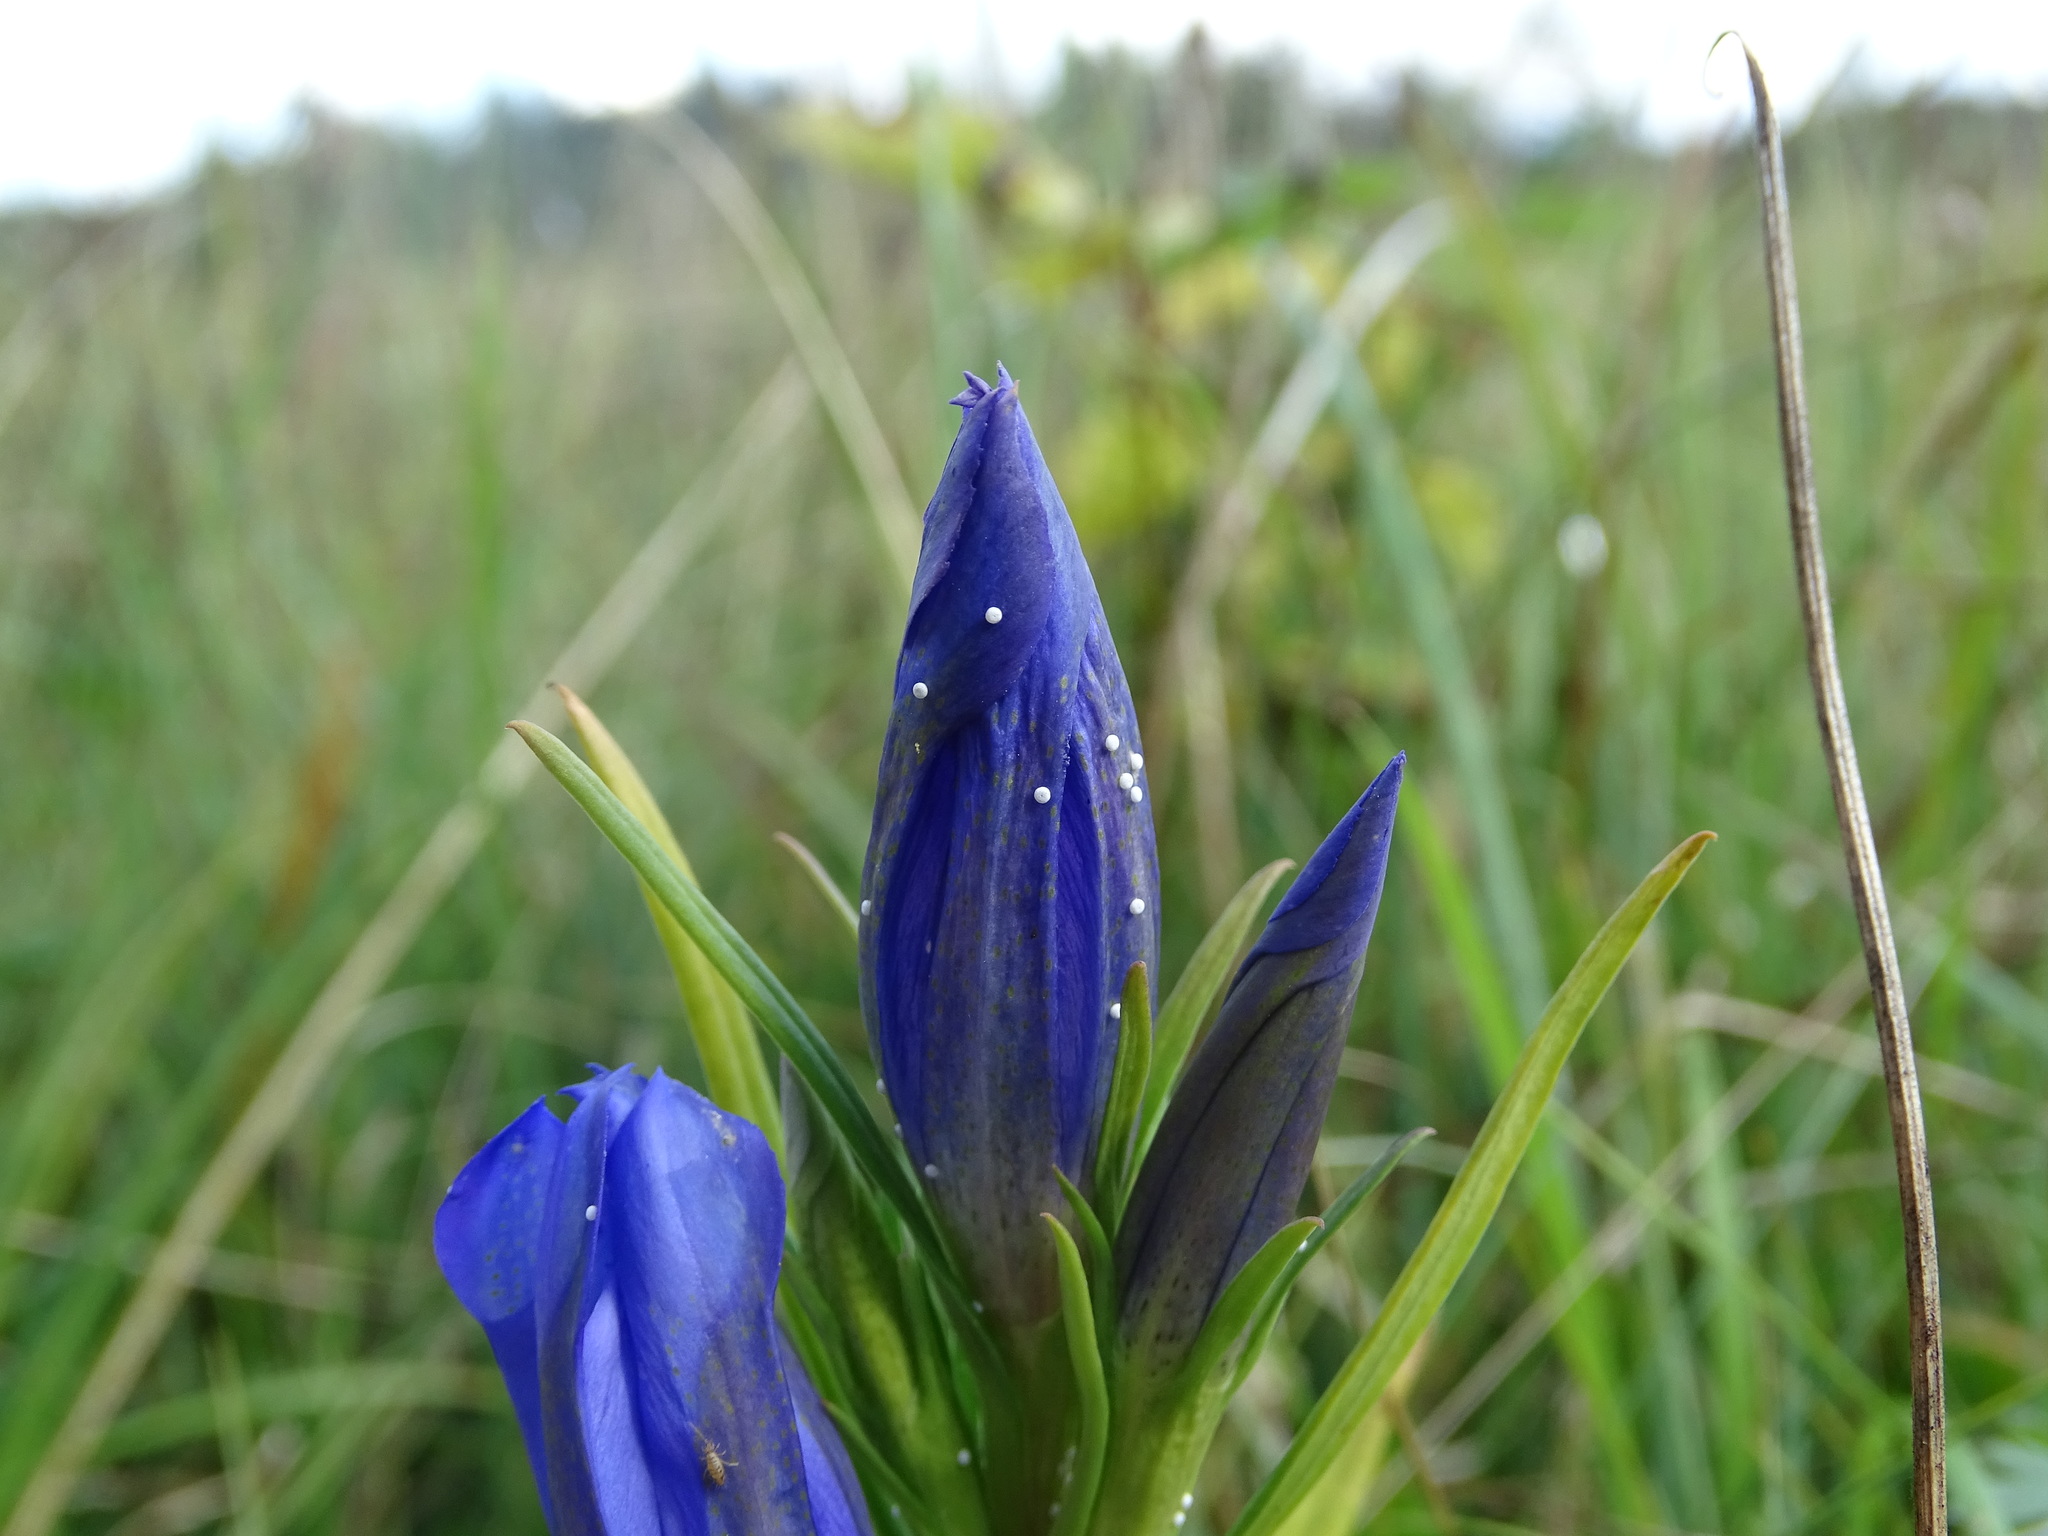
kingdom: Animalia
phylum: Arthropoda
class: Insecta
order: Lepidoptera
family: Lycaenidae
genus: Maculinea
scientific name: Maculinea alcon
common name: Alcon blue
